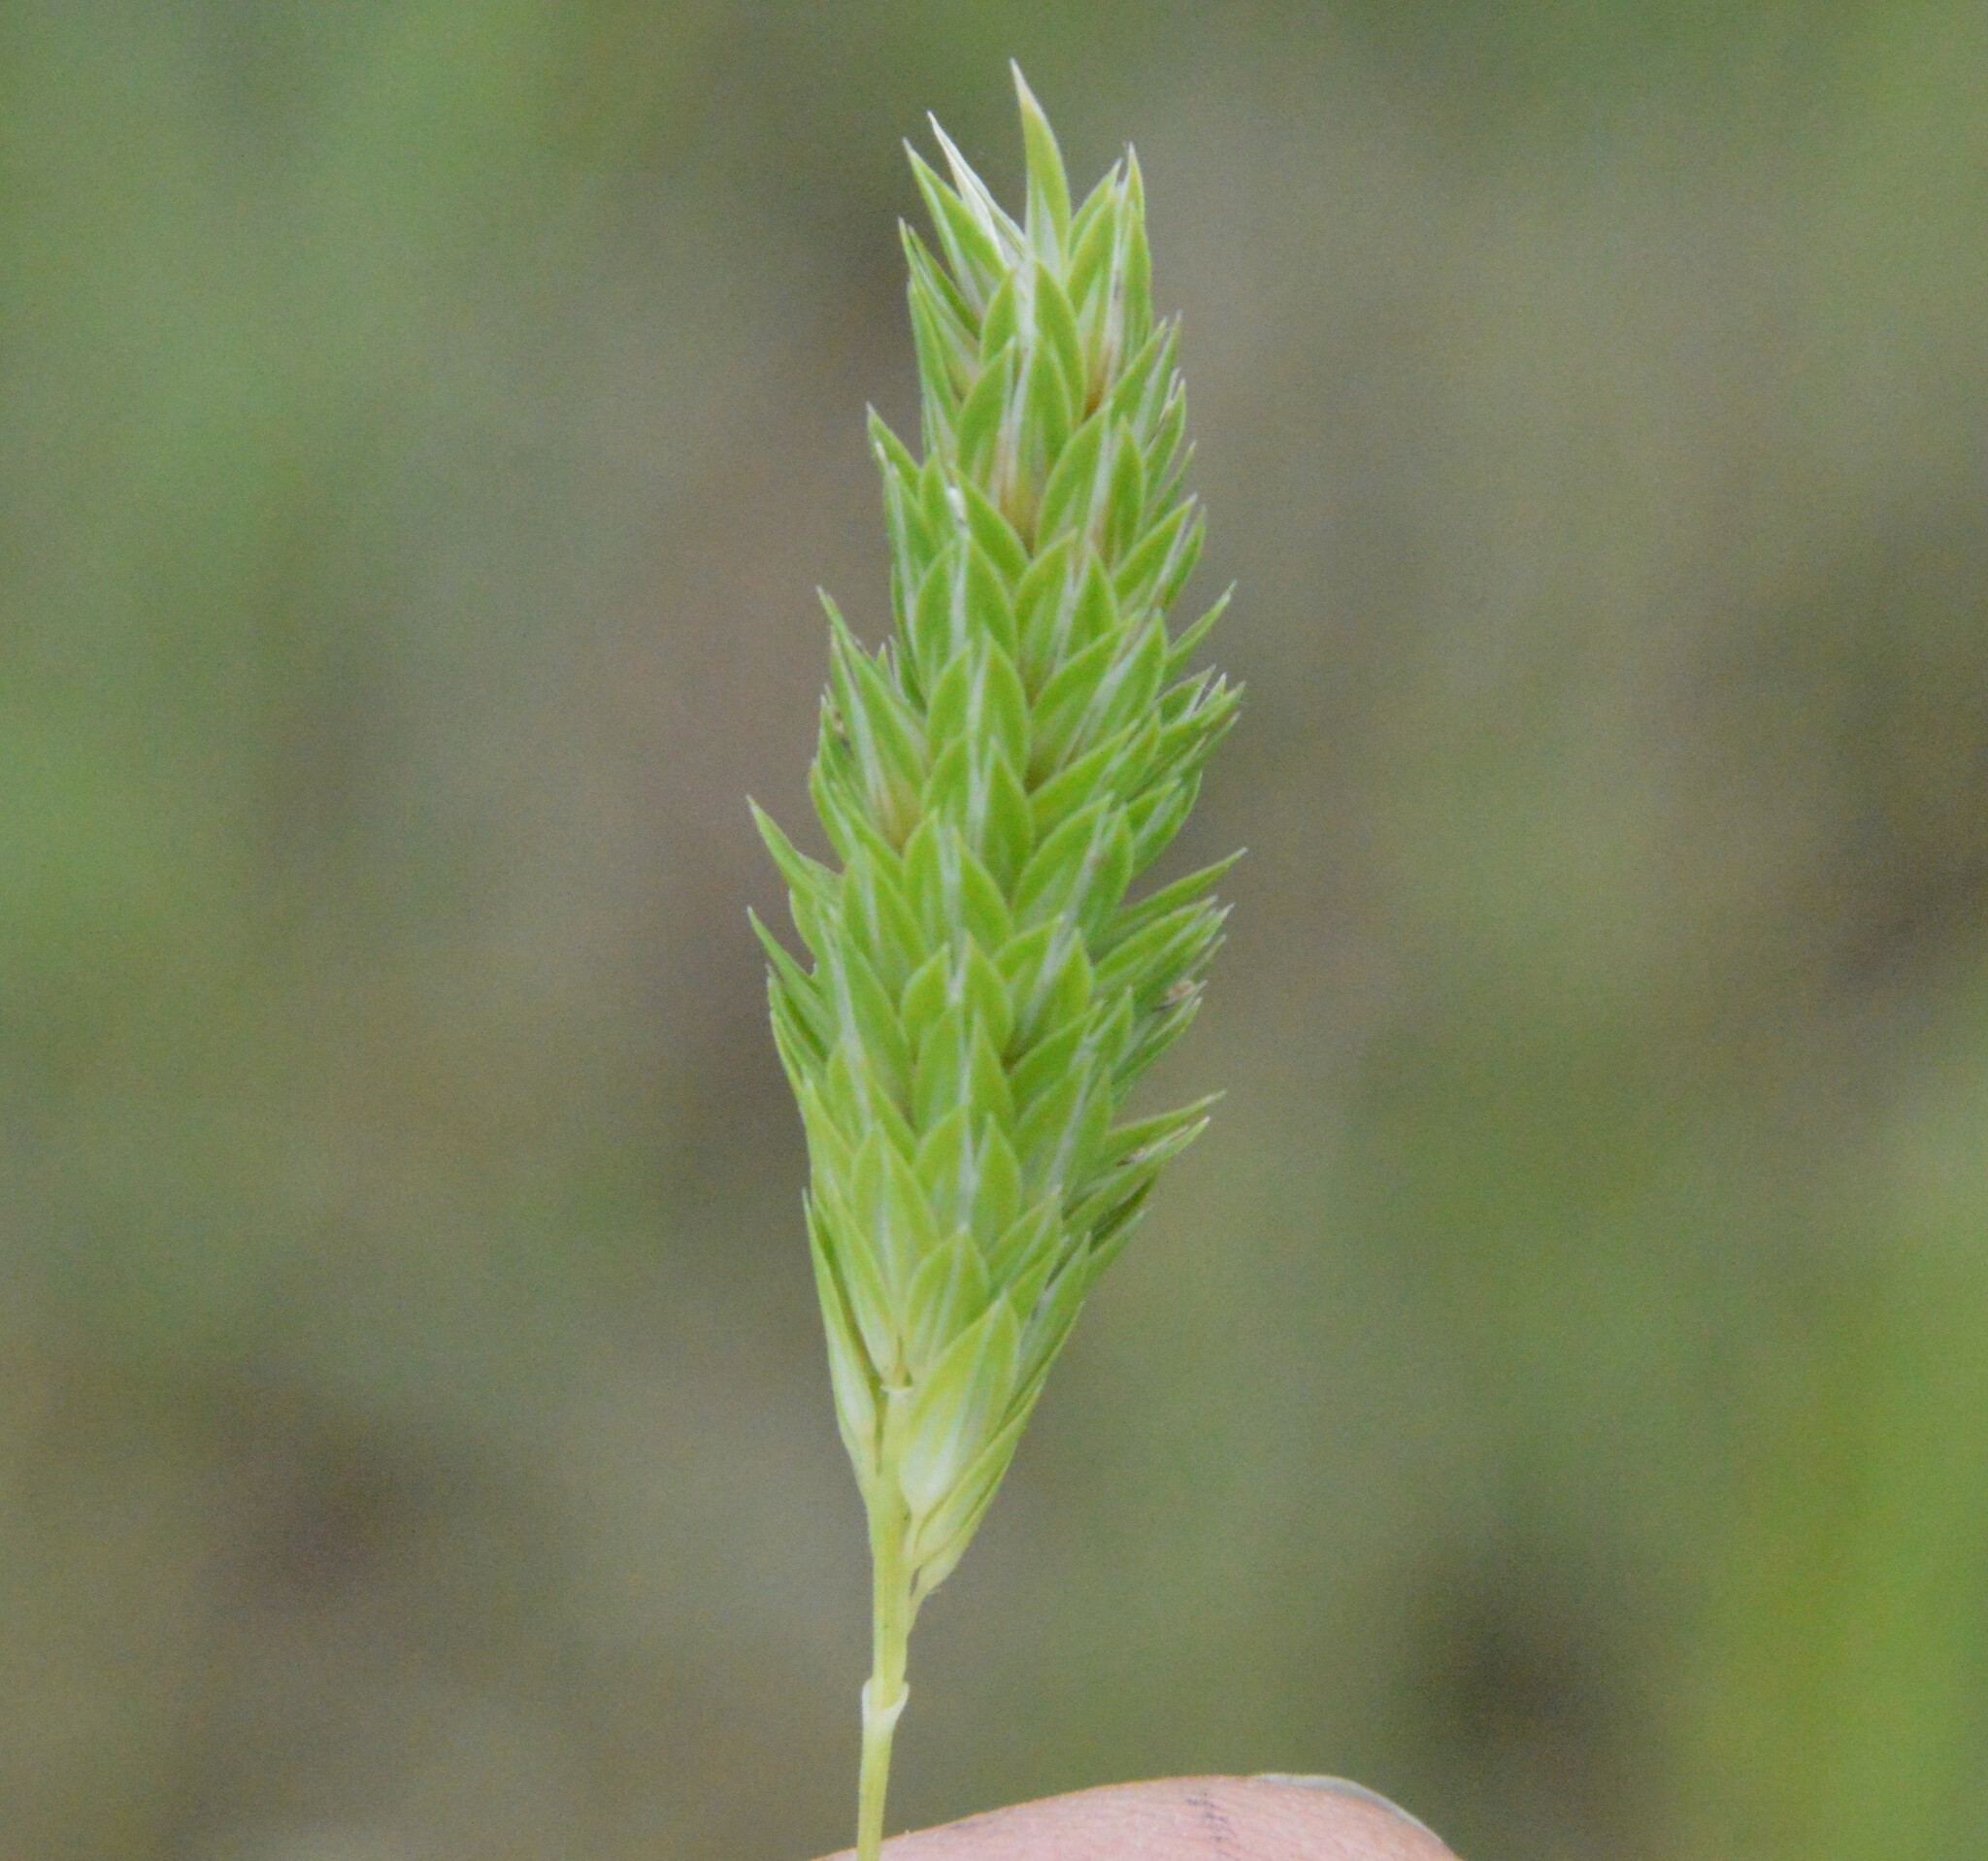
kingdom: Plantae
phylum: Tracheophyta
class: Liliopsida
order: Poales
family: Poaceae
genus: Phalaris
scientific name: Phalaris caroliniana
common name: May grass
